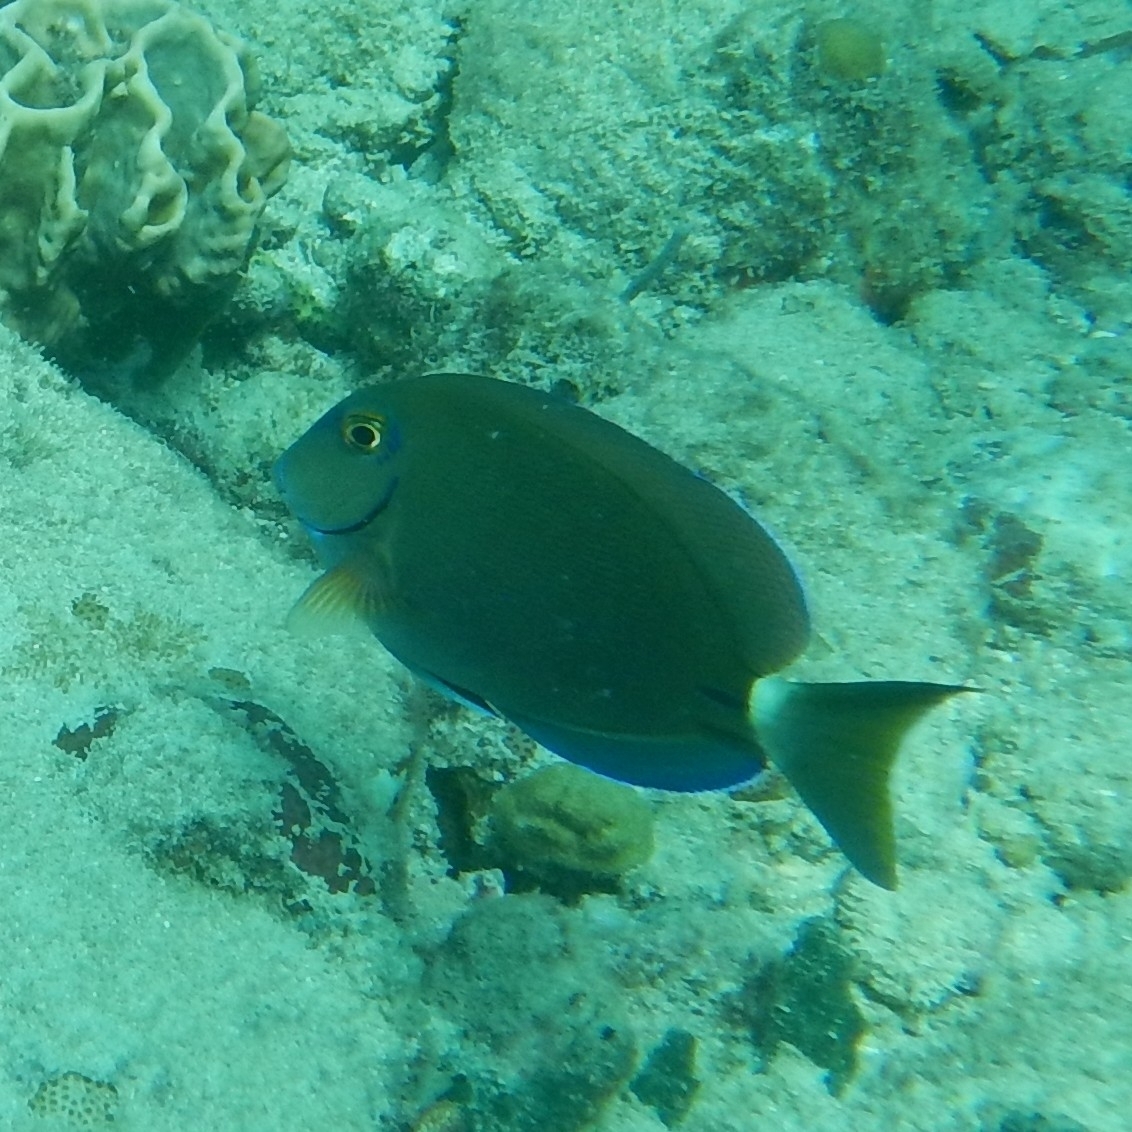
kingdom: Animalia
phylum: Chordata
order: Perciformes
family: Acanthuridae
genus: Acanthurus
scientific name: Acanthurus bahianus
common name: Ocean surgeon
